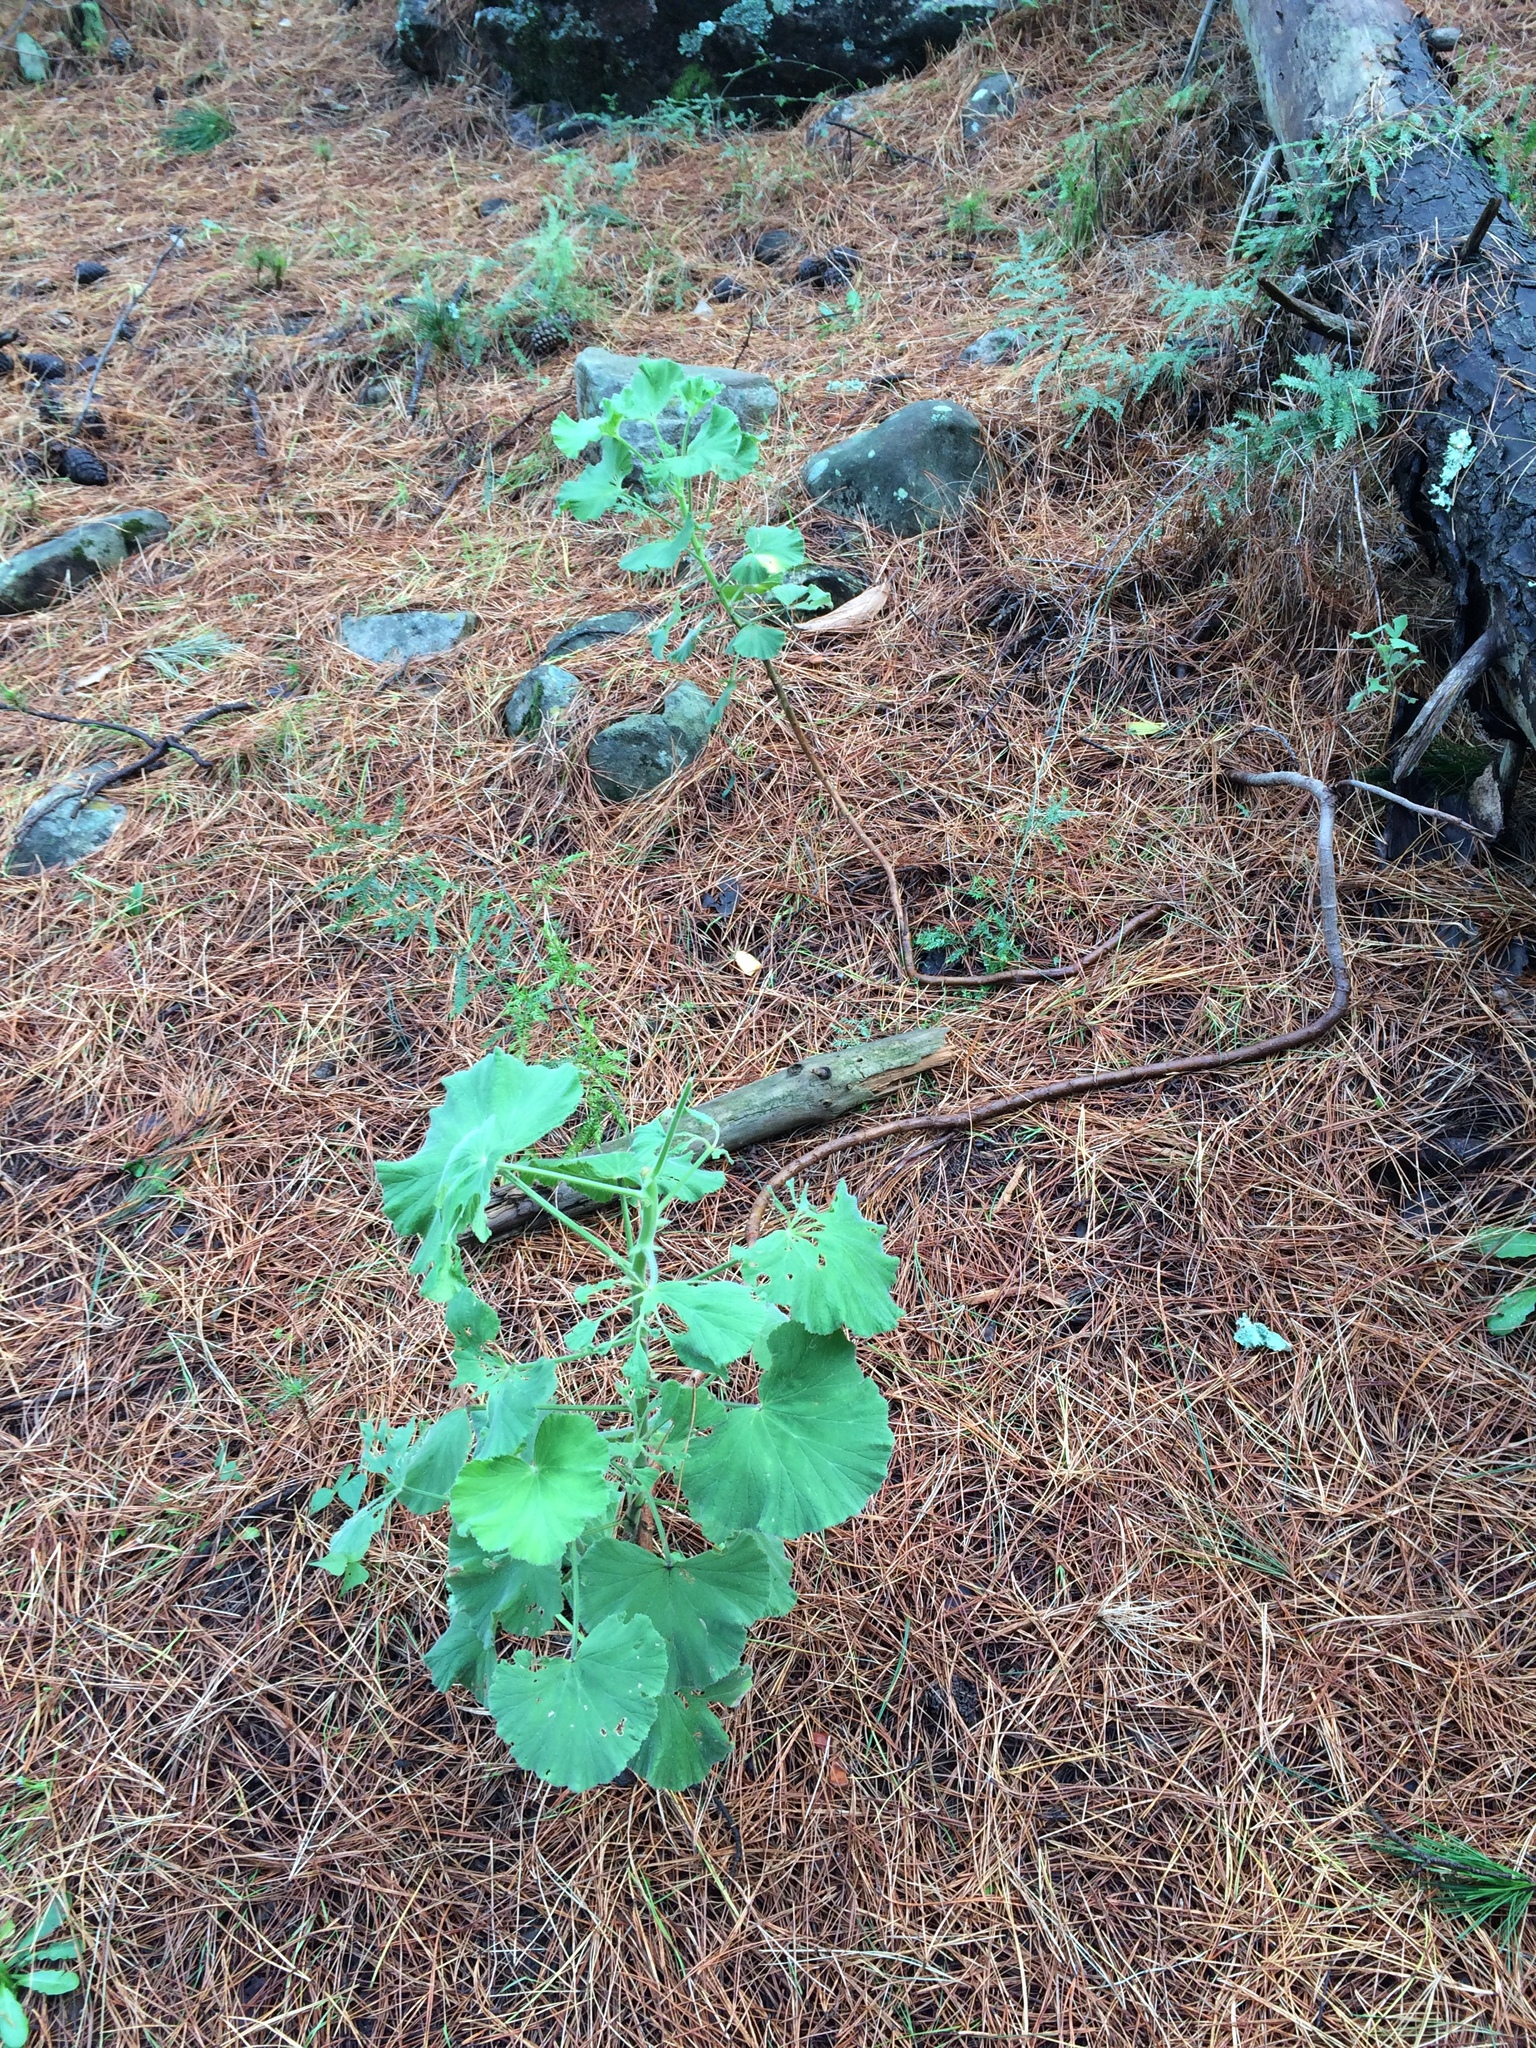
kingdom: Plantae
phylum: Tracheophyta
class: Magnoliopsida
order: Geraniales
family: Geraniaceae
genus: Pelargonium
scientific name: Pelargonium cucullatum
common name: Tree pelargonium
